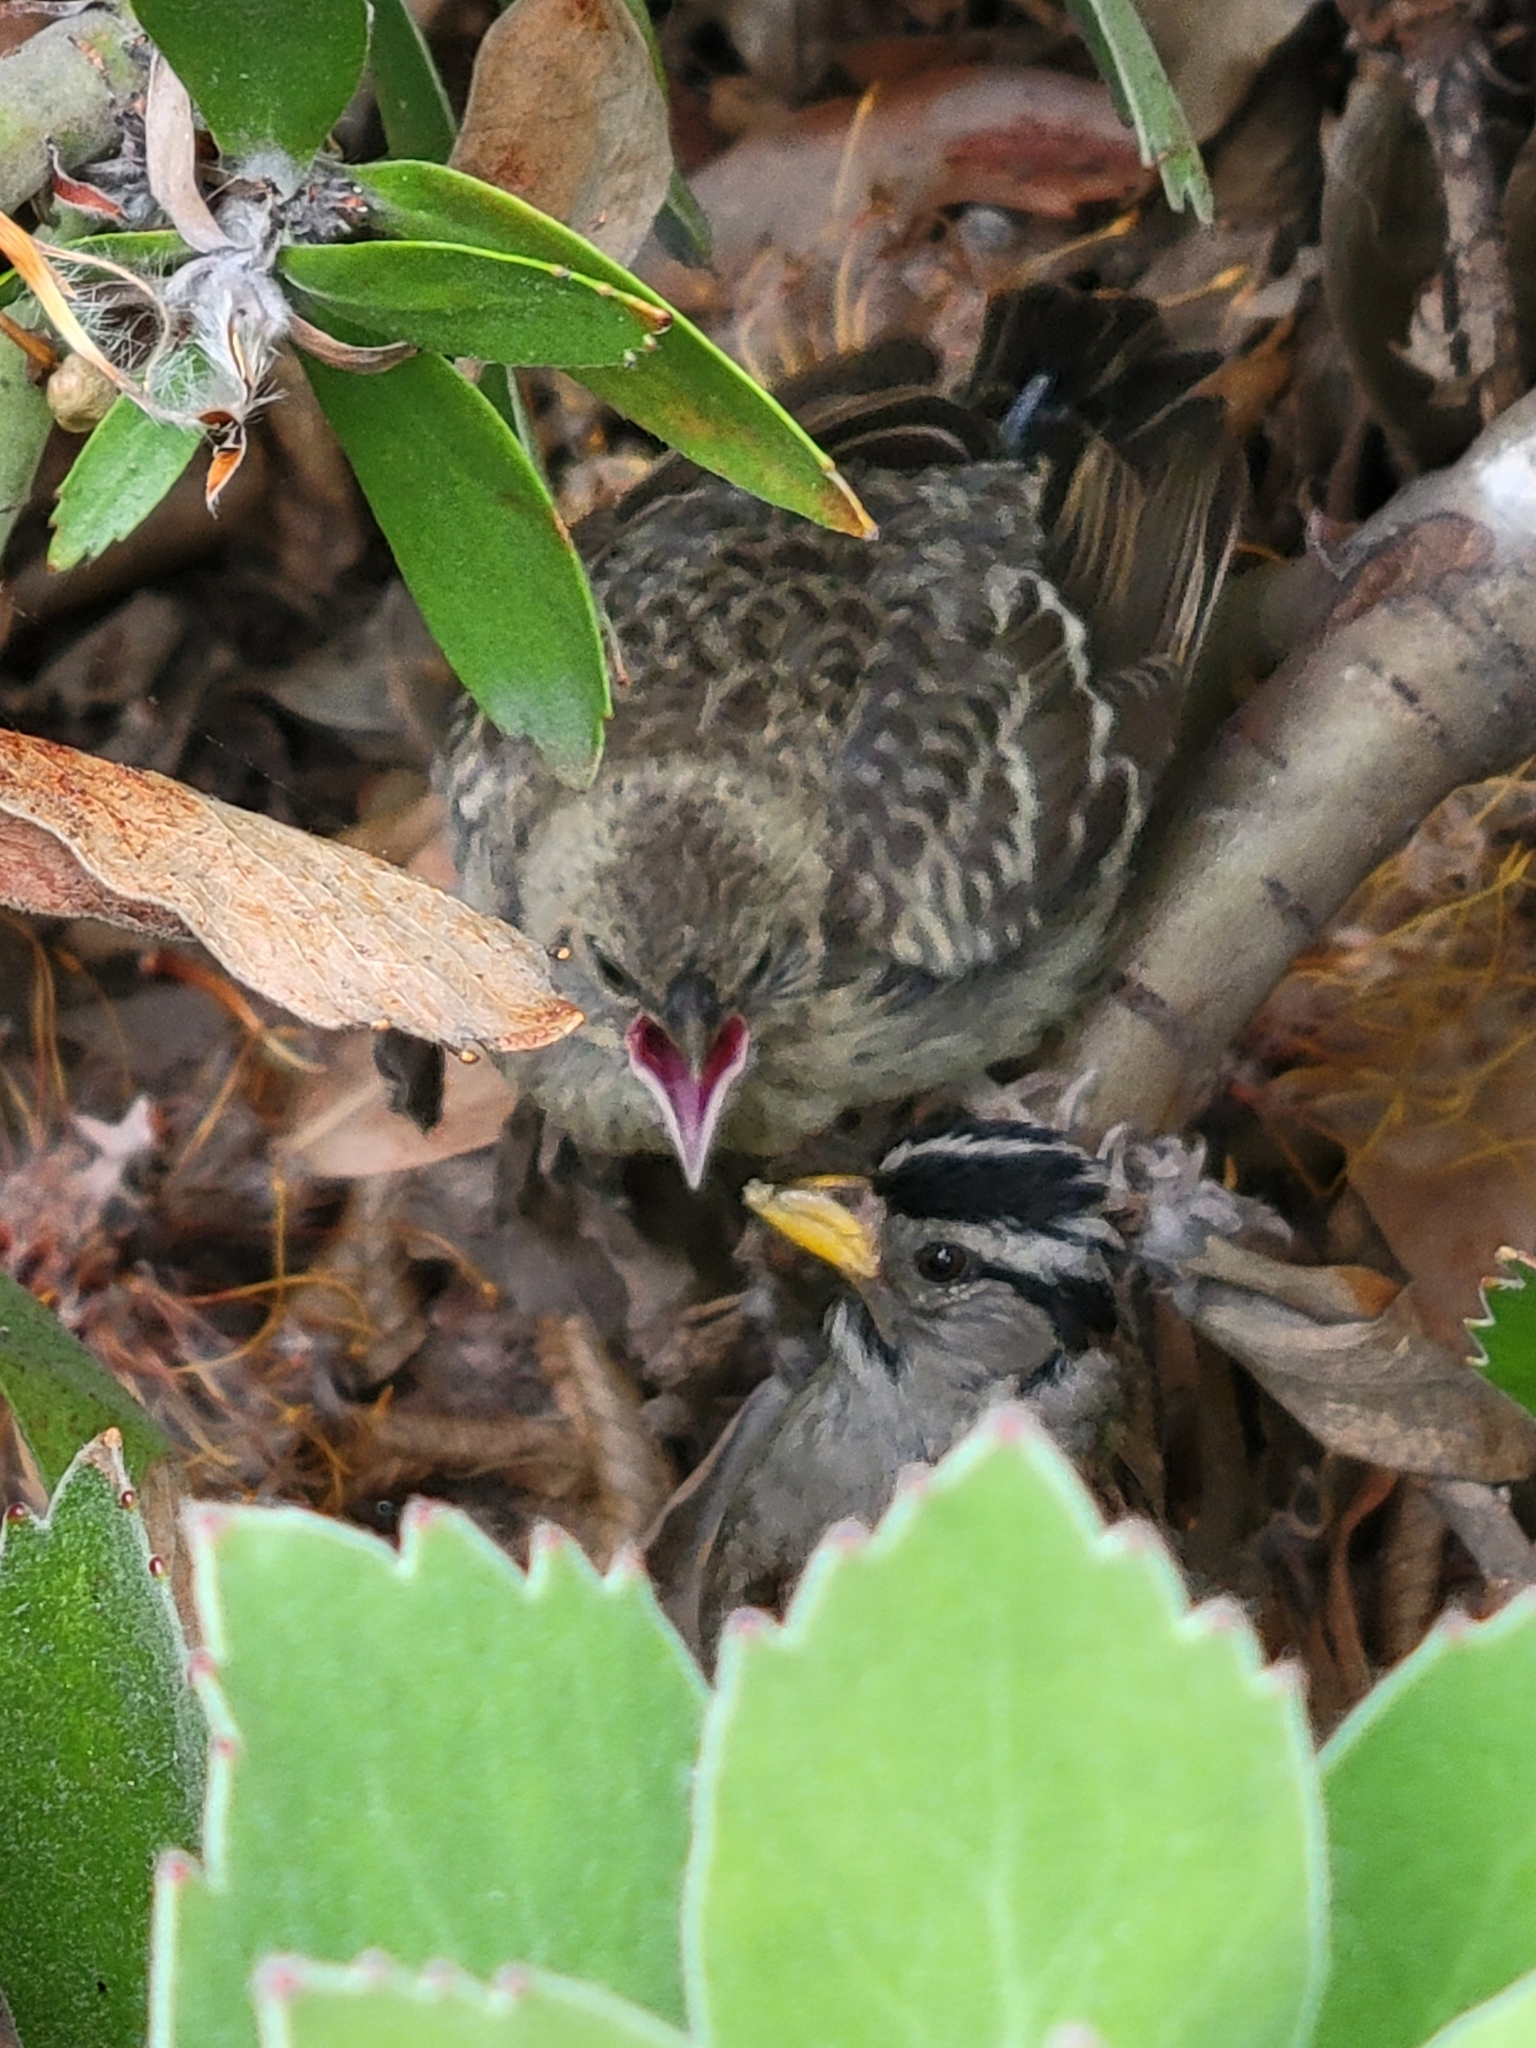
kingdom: Animalia
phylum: Chordata
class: Aves
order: Passeriformes
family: Icteridae
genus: Molothrus
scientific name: Molothrus ater
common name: Brown-headed cowbird
